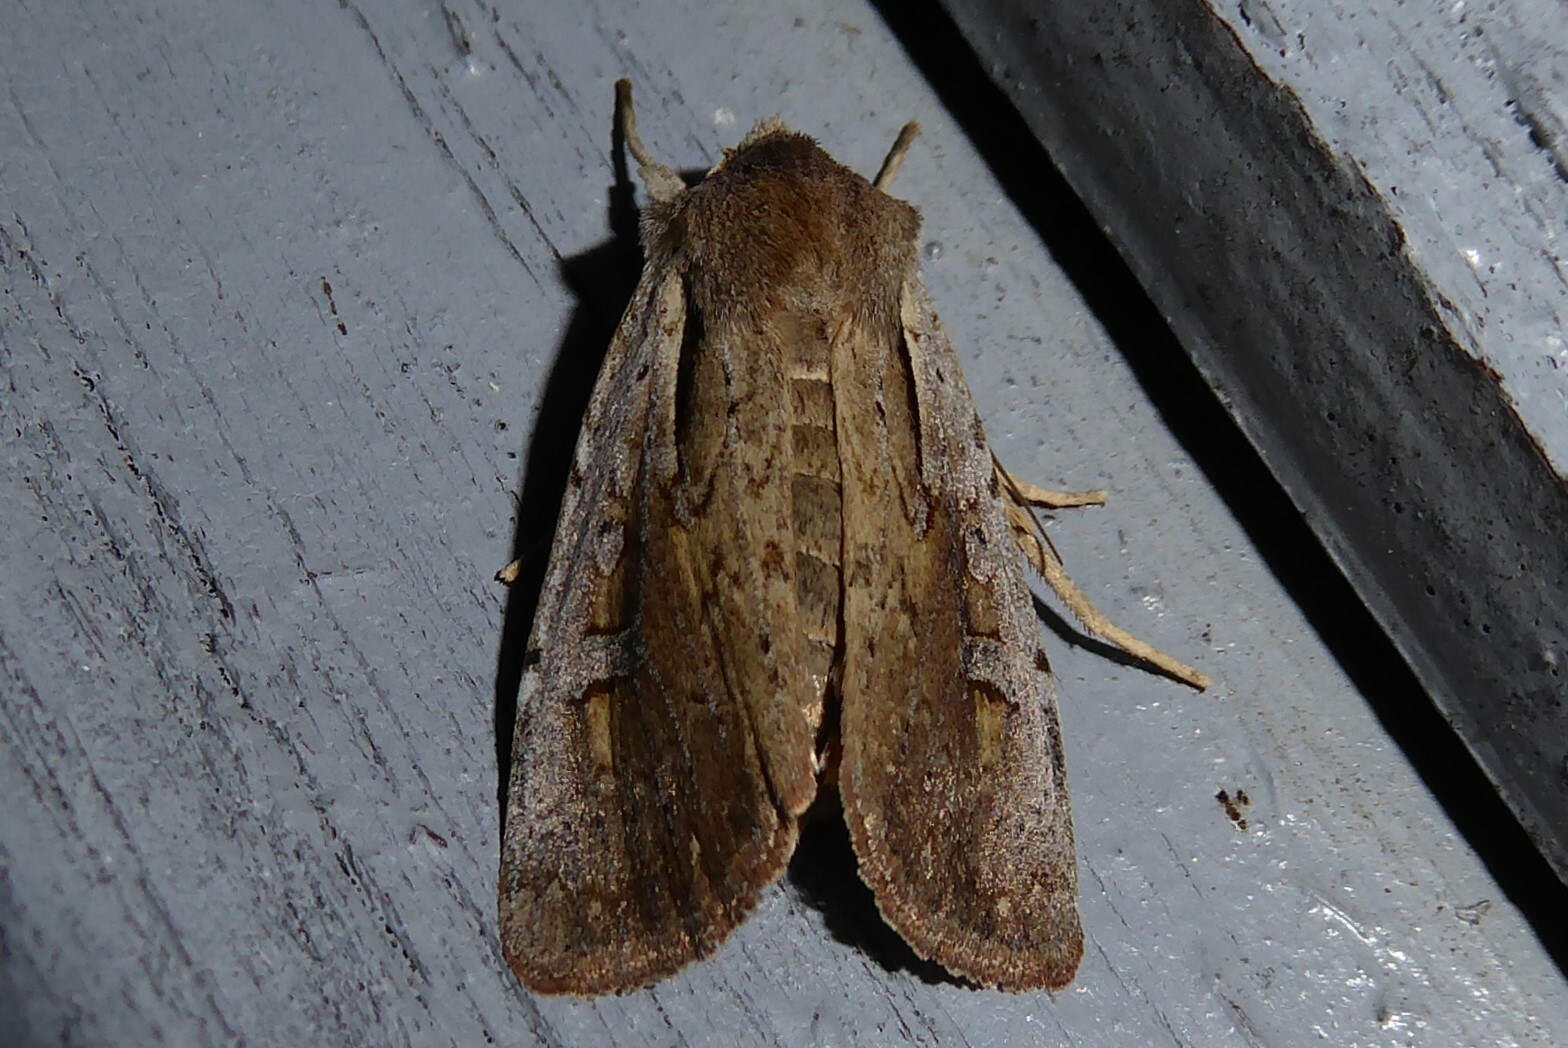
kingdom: Animalia
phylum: Arthropoda
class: Insecta
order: Lepidoptera
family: Noctuidae
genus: Ichneutica
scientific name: Ichneutica atristriga
